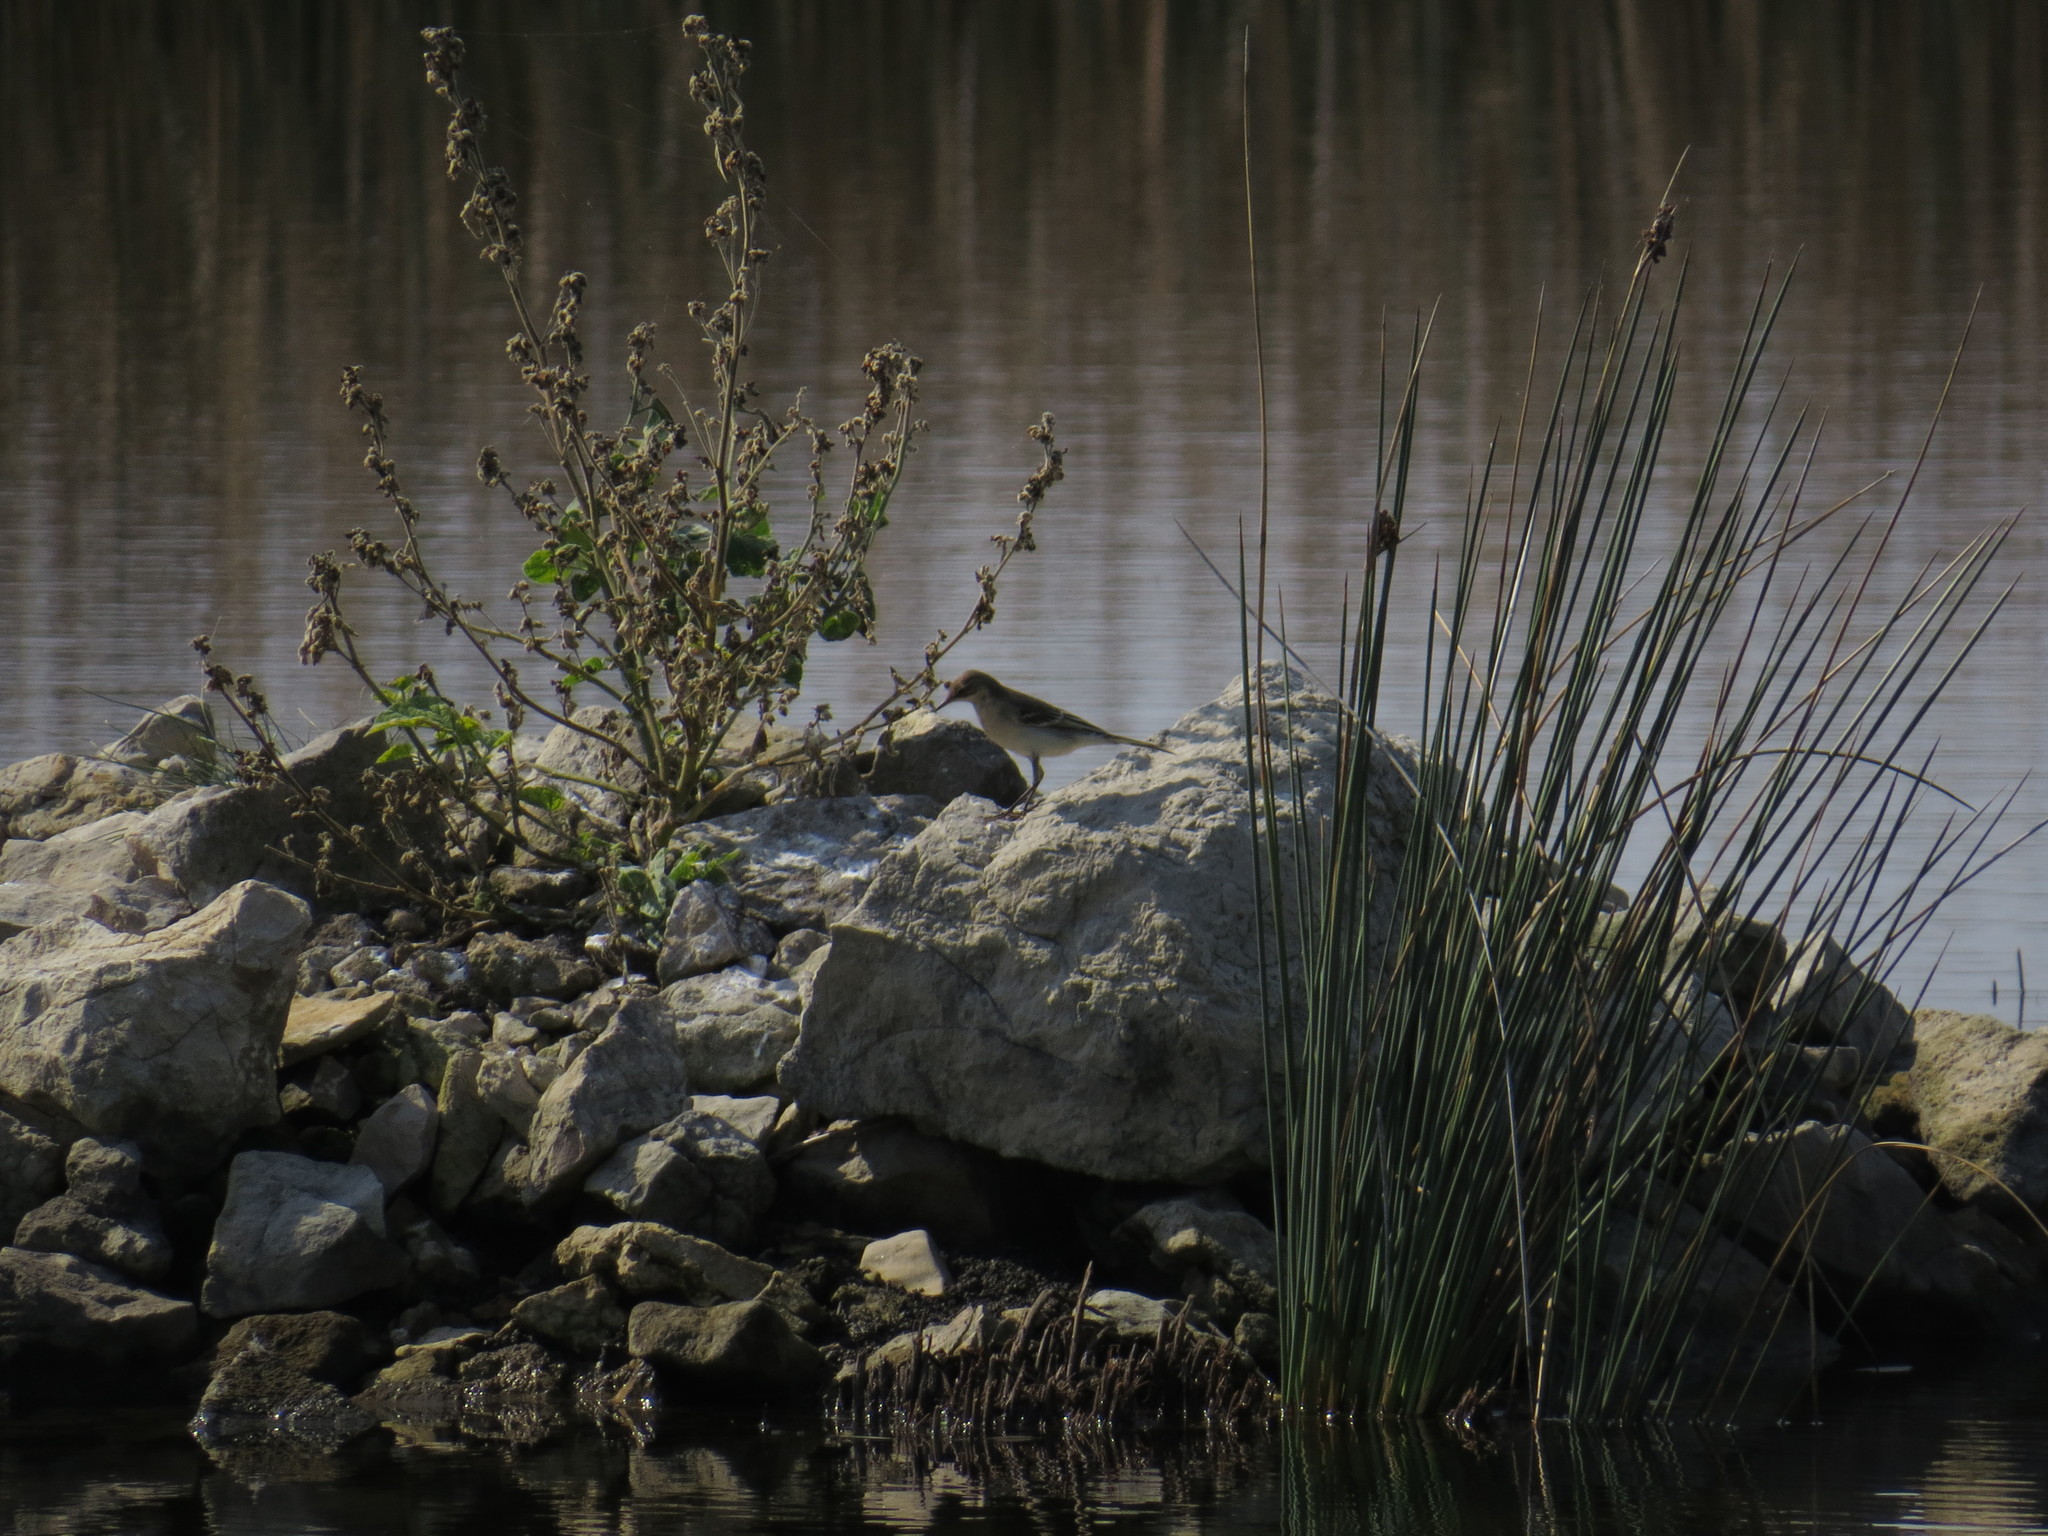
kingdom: Animalia
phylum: Chordata
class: Aves
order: Passeriformes
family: Motacillidae
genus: Motacilla
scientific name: Motacilla flava
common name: Western yellow wagtail
